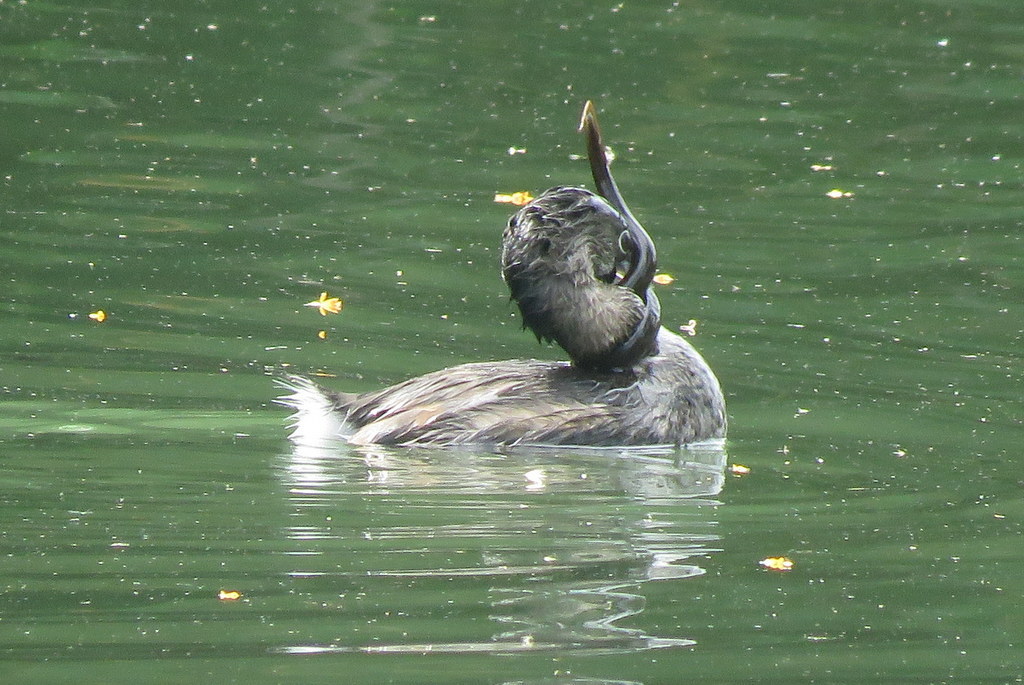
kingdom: Animalia
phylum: Chordata
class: Aves
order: Podicipediformes
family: Podicipedidae
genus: Podilymbus
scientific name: Podilymbus podiceps
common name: Pied-billed grebe
